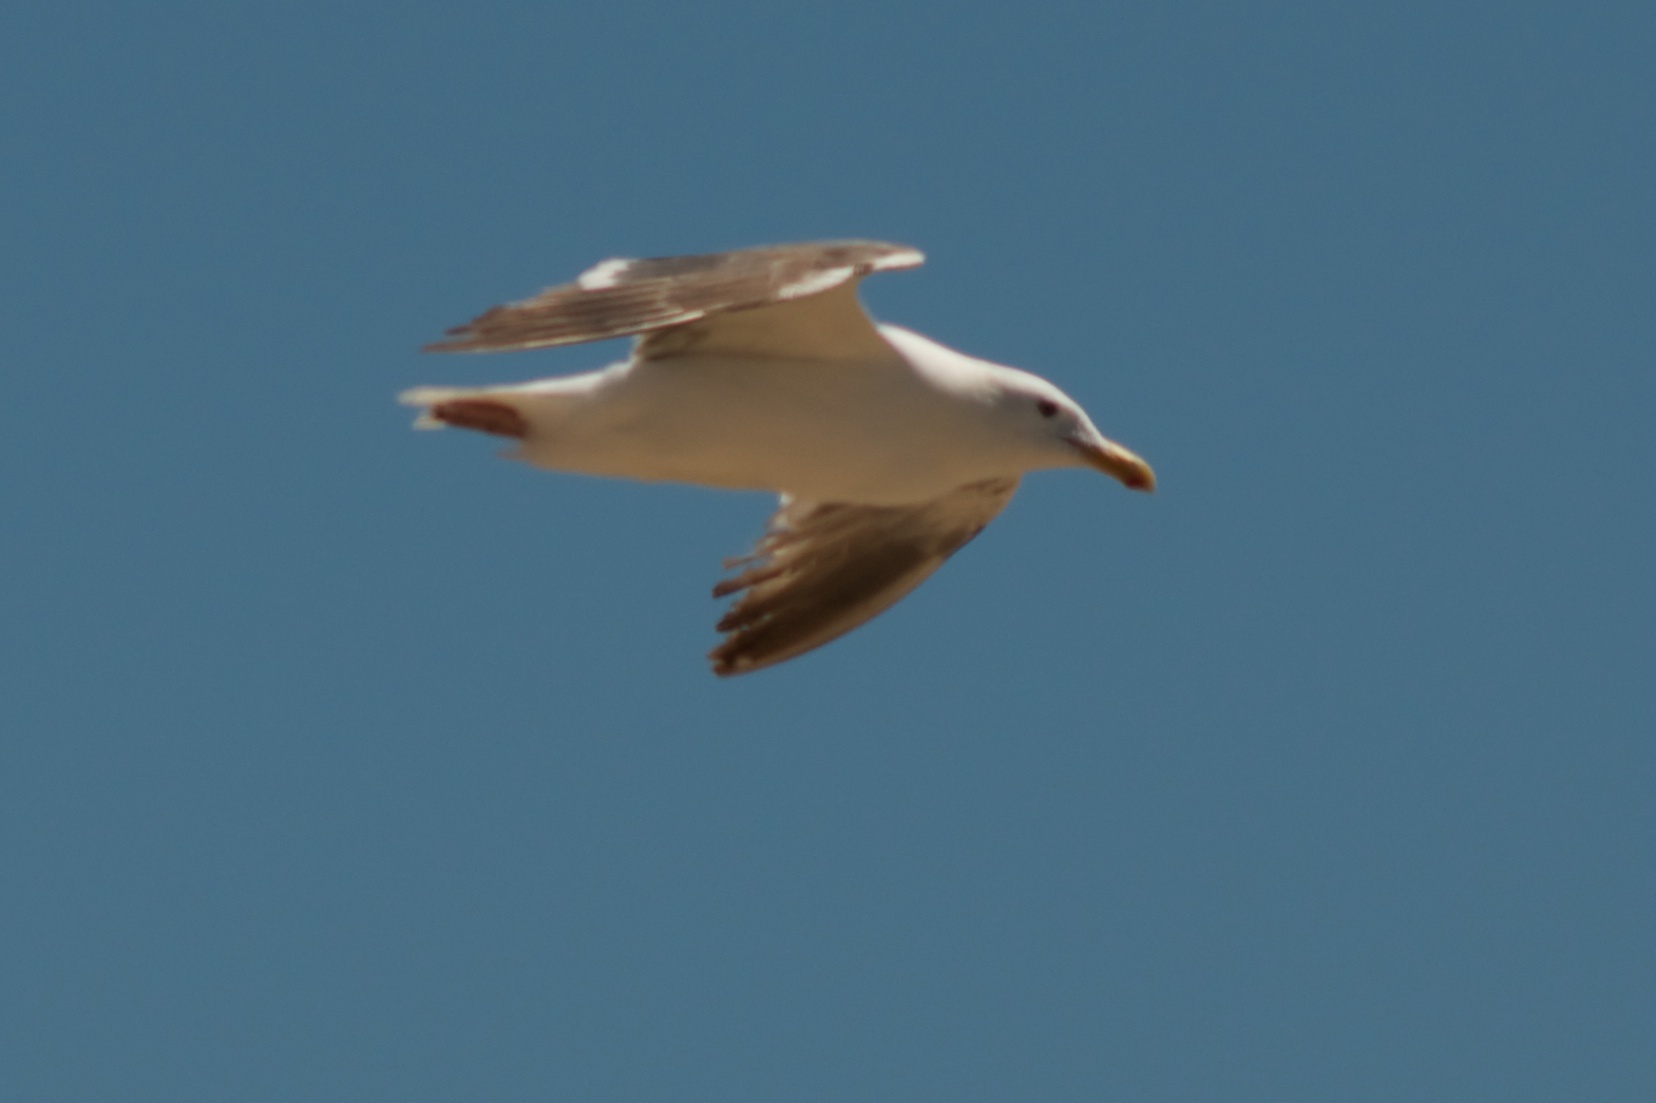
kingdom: Animalia
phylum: Chordata
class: Aves
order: Charadriiformes
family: Laridae
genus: Larus
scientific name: Larus occidentalis
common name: Western gull
